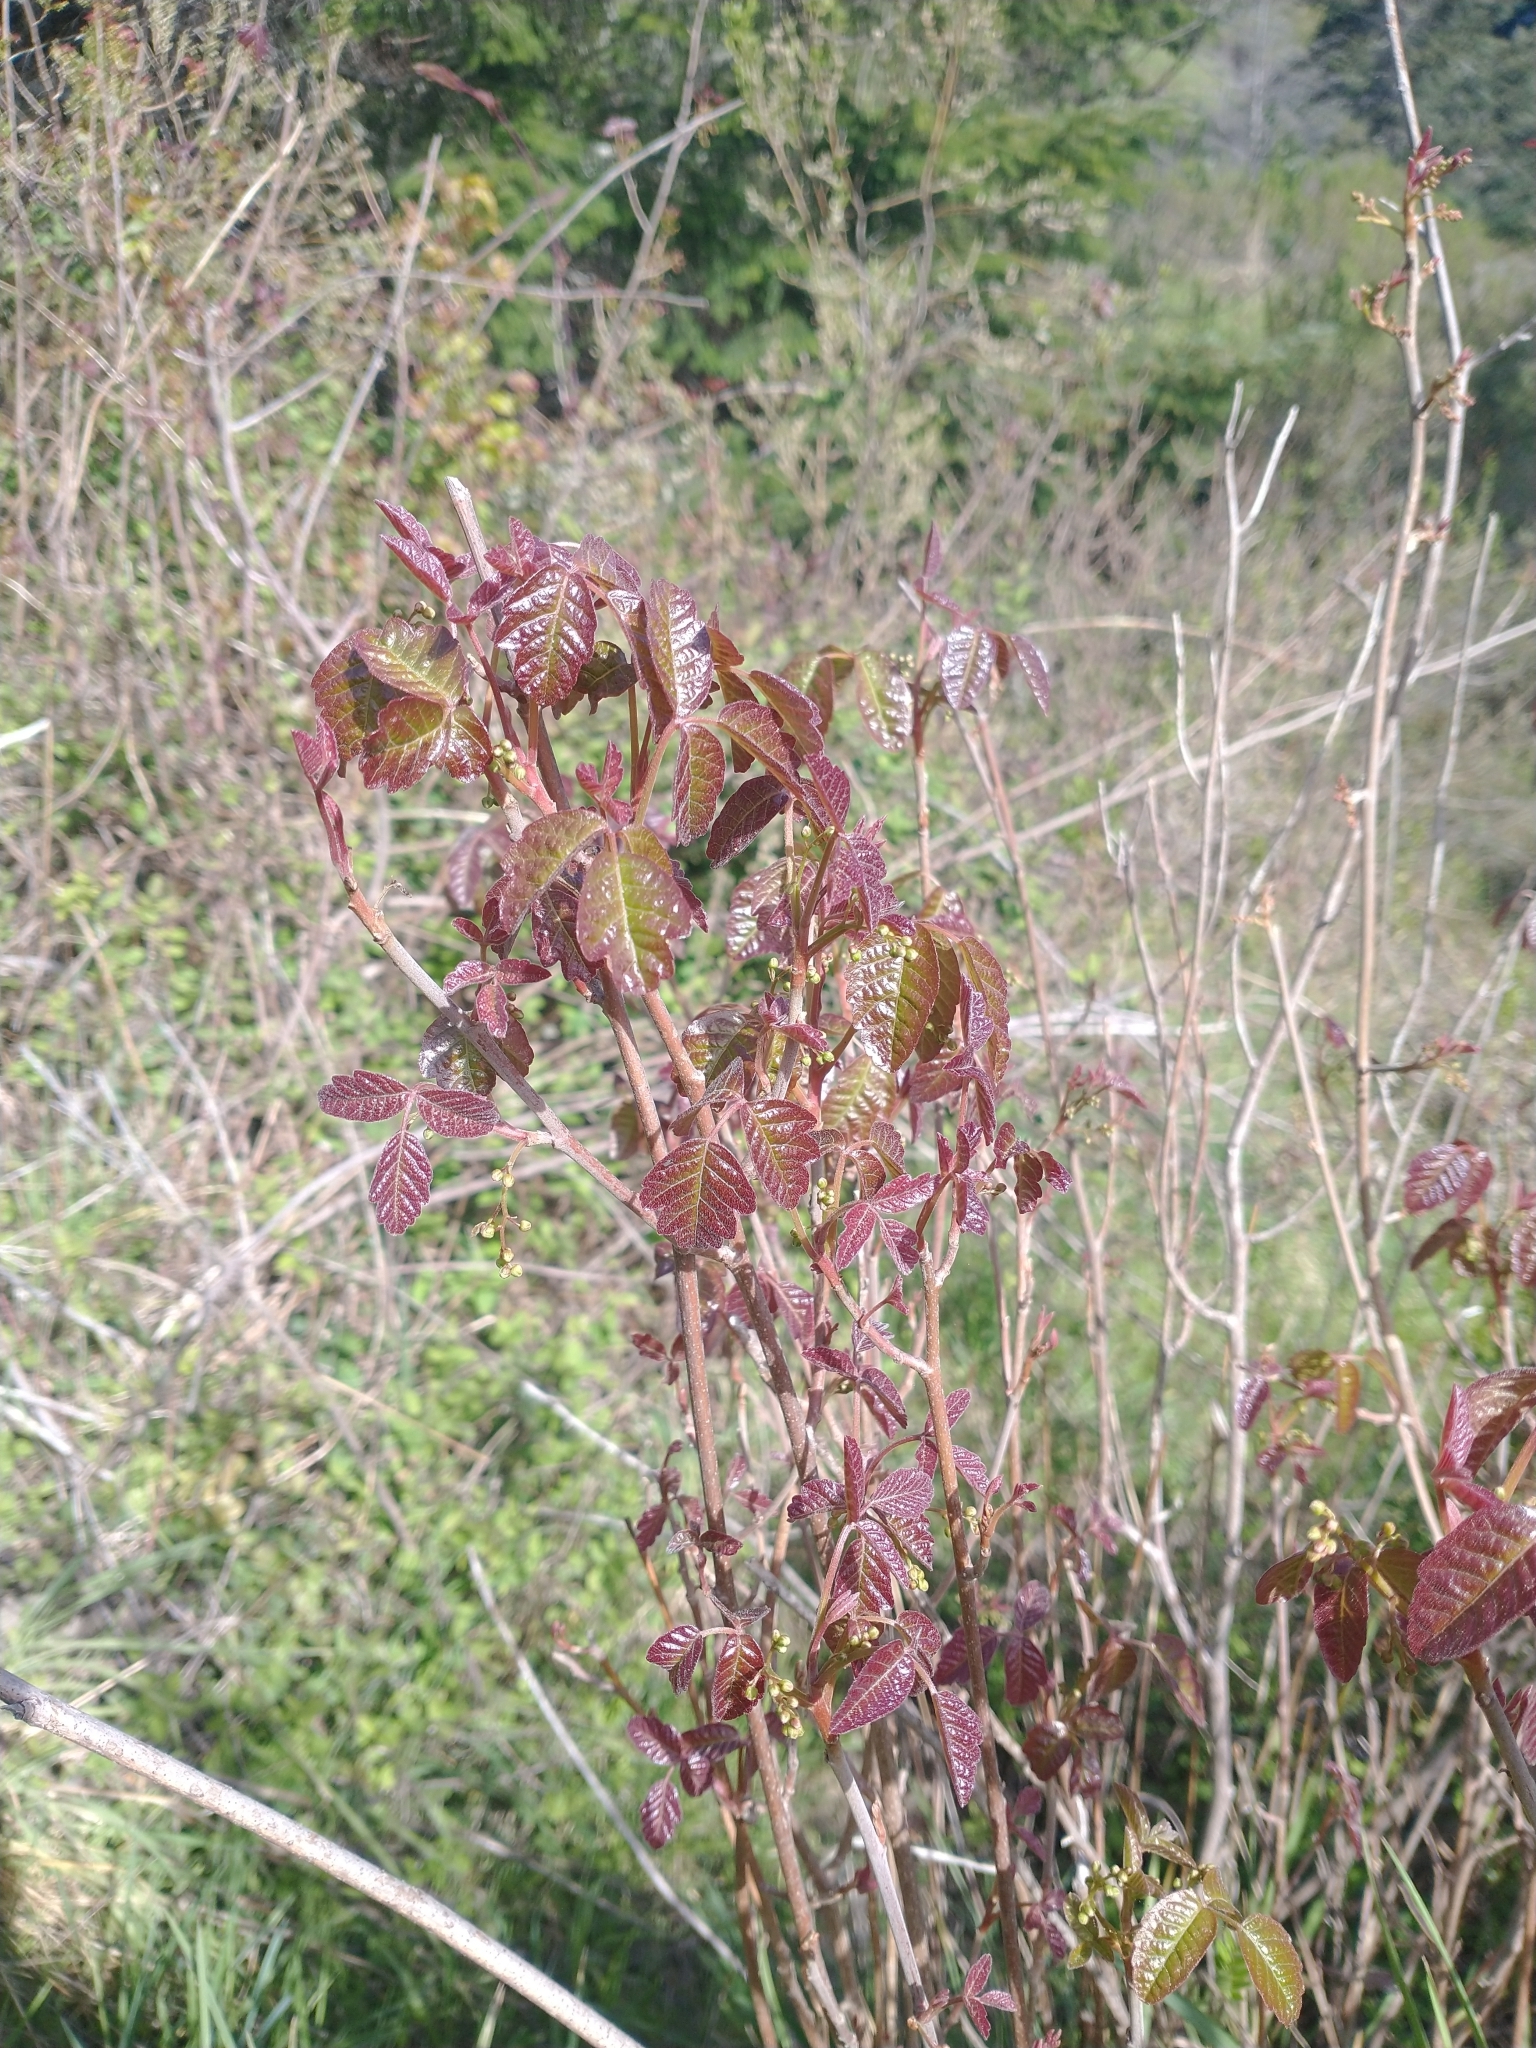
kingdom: Plantae
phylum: Tracheophyta
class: Magnoliopsida
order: Sapindales
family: Anacardiaceae
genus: Toxicodendron
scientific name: Toxicodendron diversilobum
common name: Pacific poison-oak
